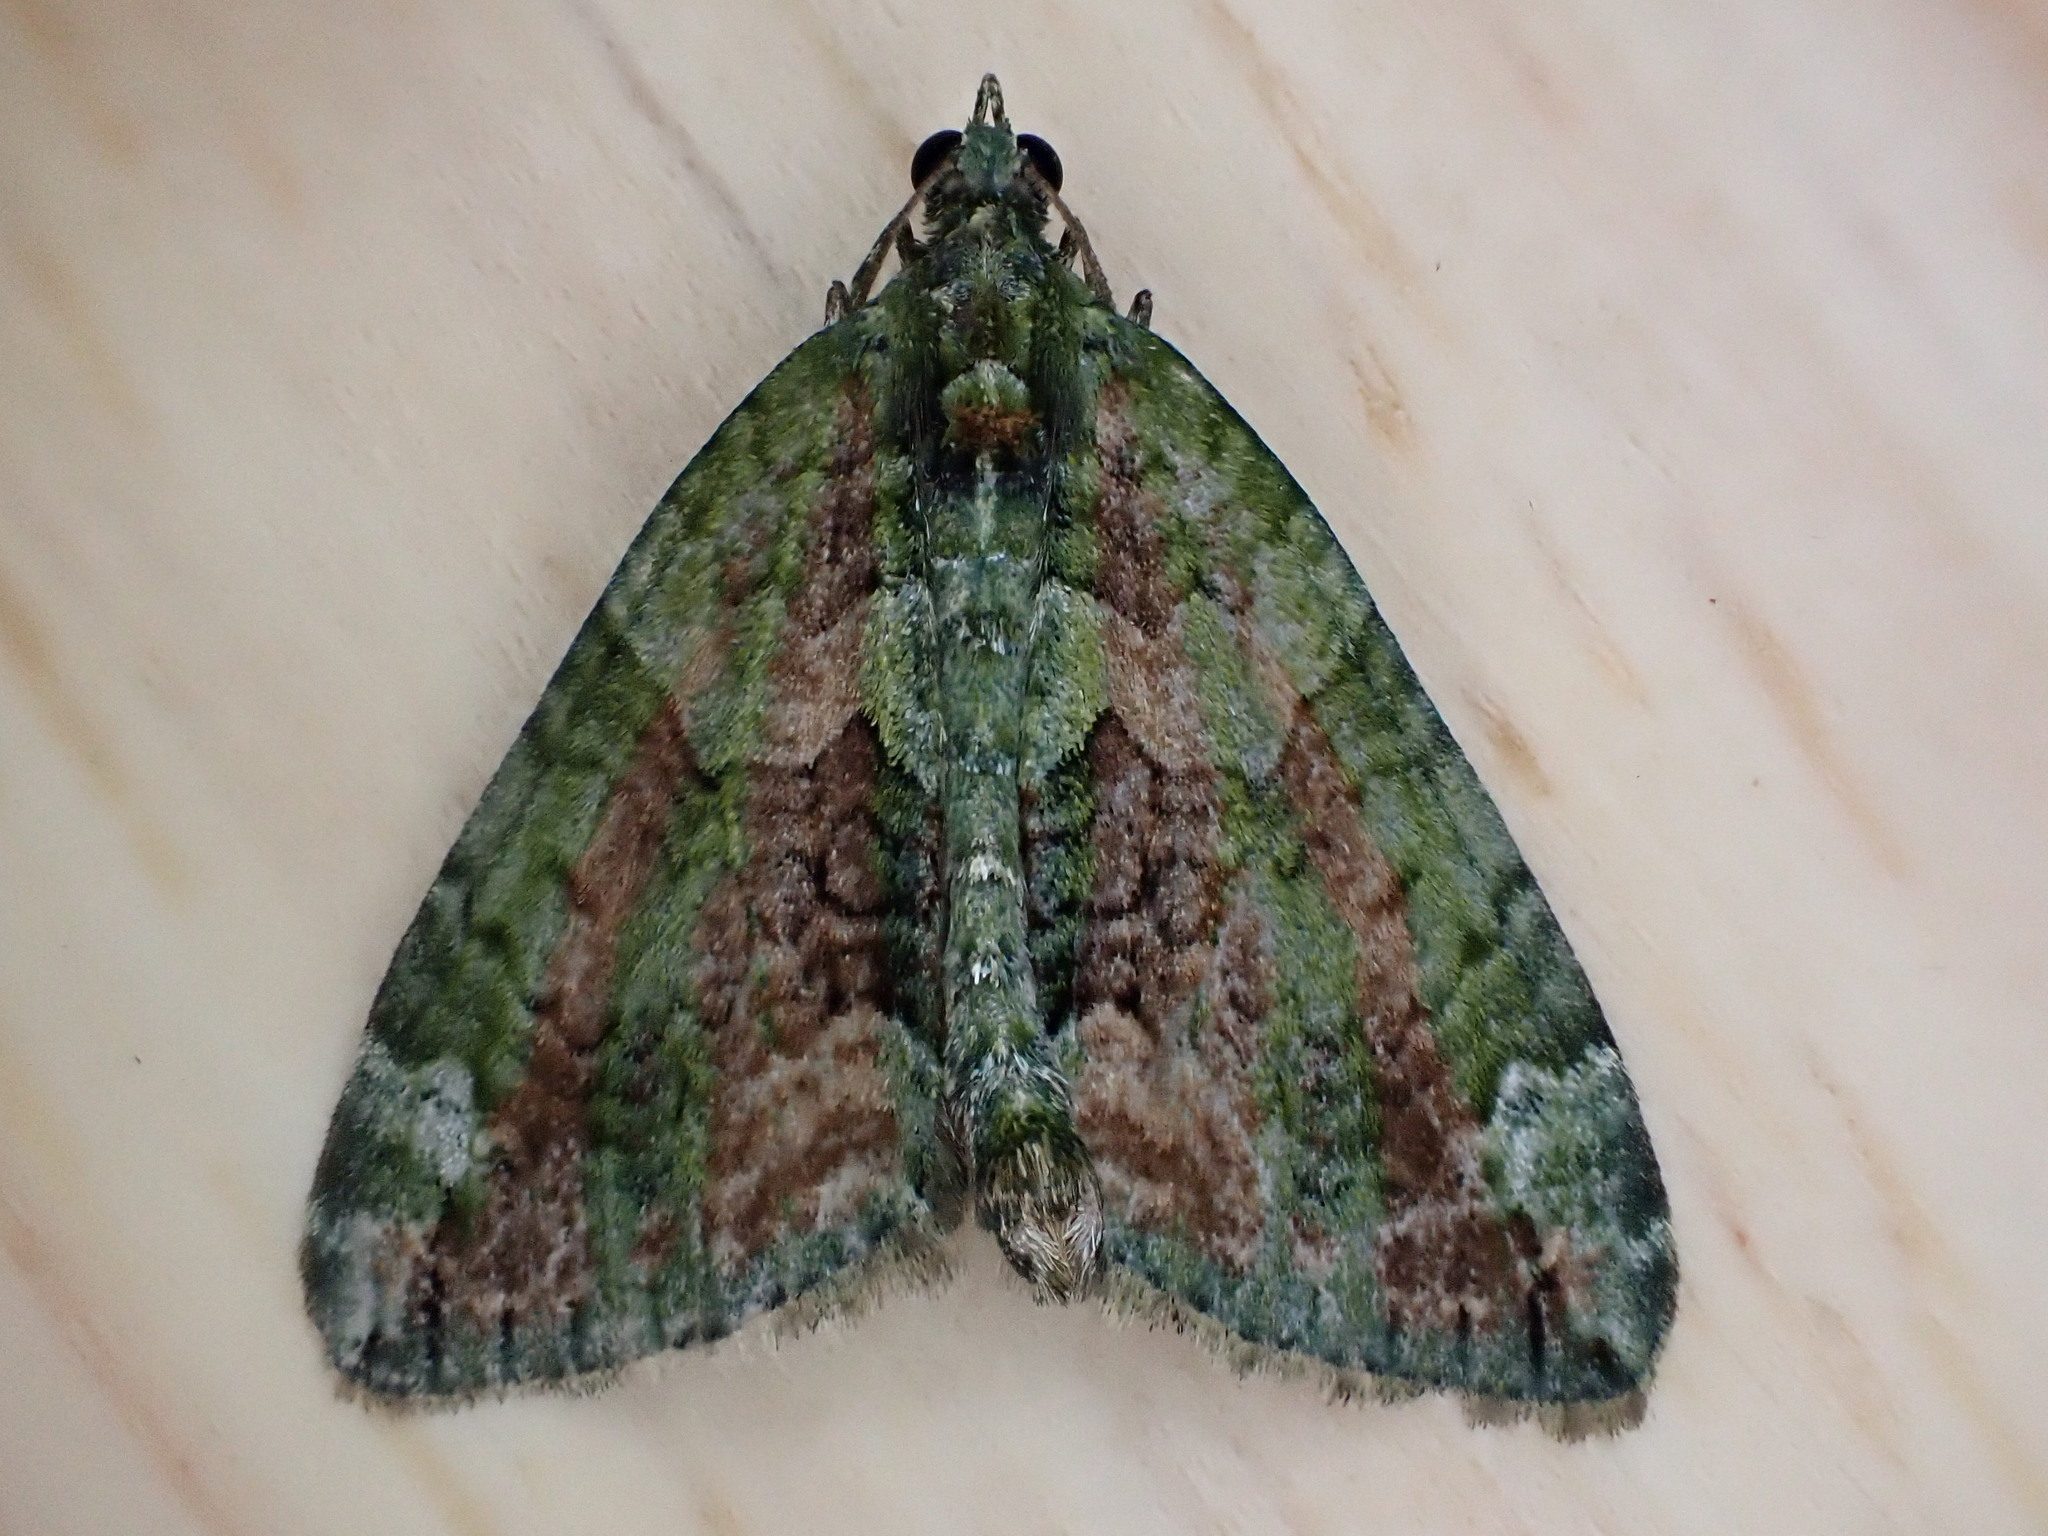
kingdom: Animalia
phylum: Arthropoda
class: Insecta
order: Lepidoptera
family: Geometridae
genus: Chloroclysta
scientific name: Chloroclysta siterata
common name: Red-green carpet
